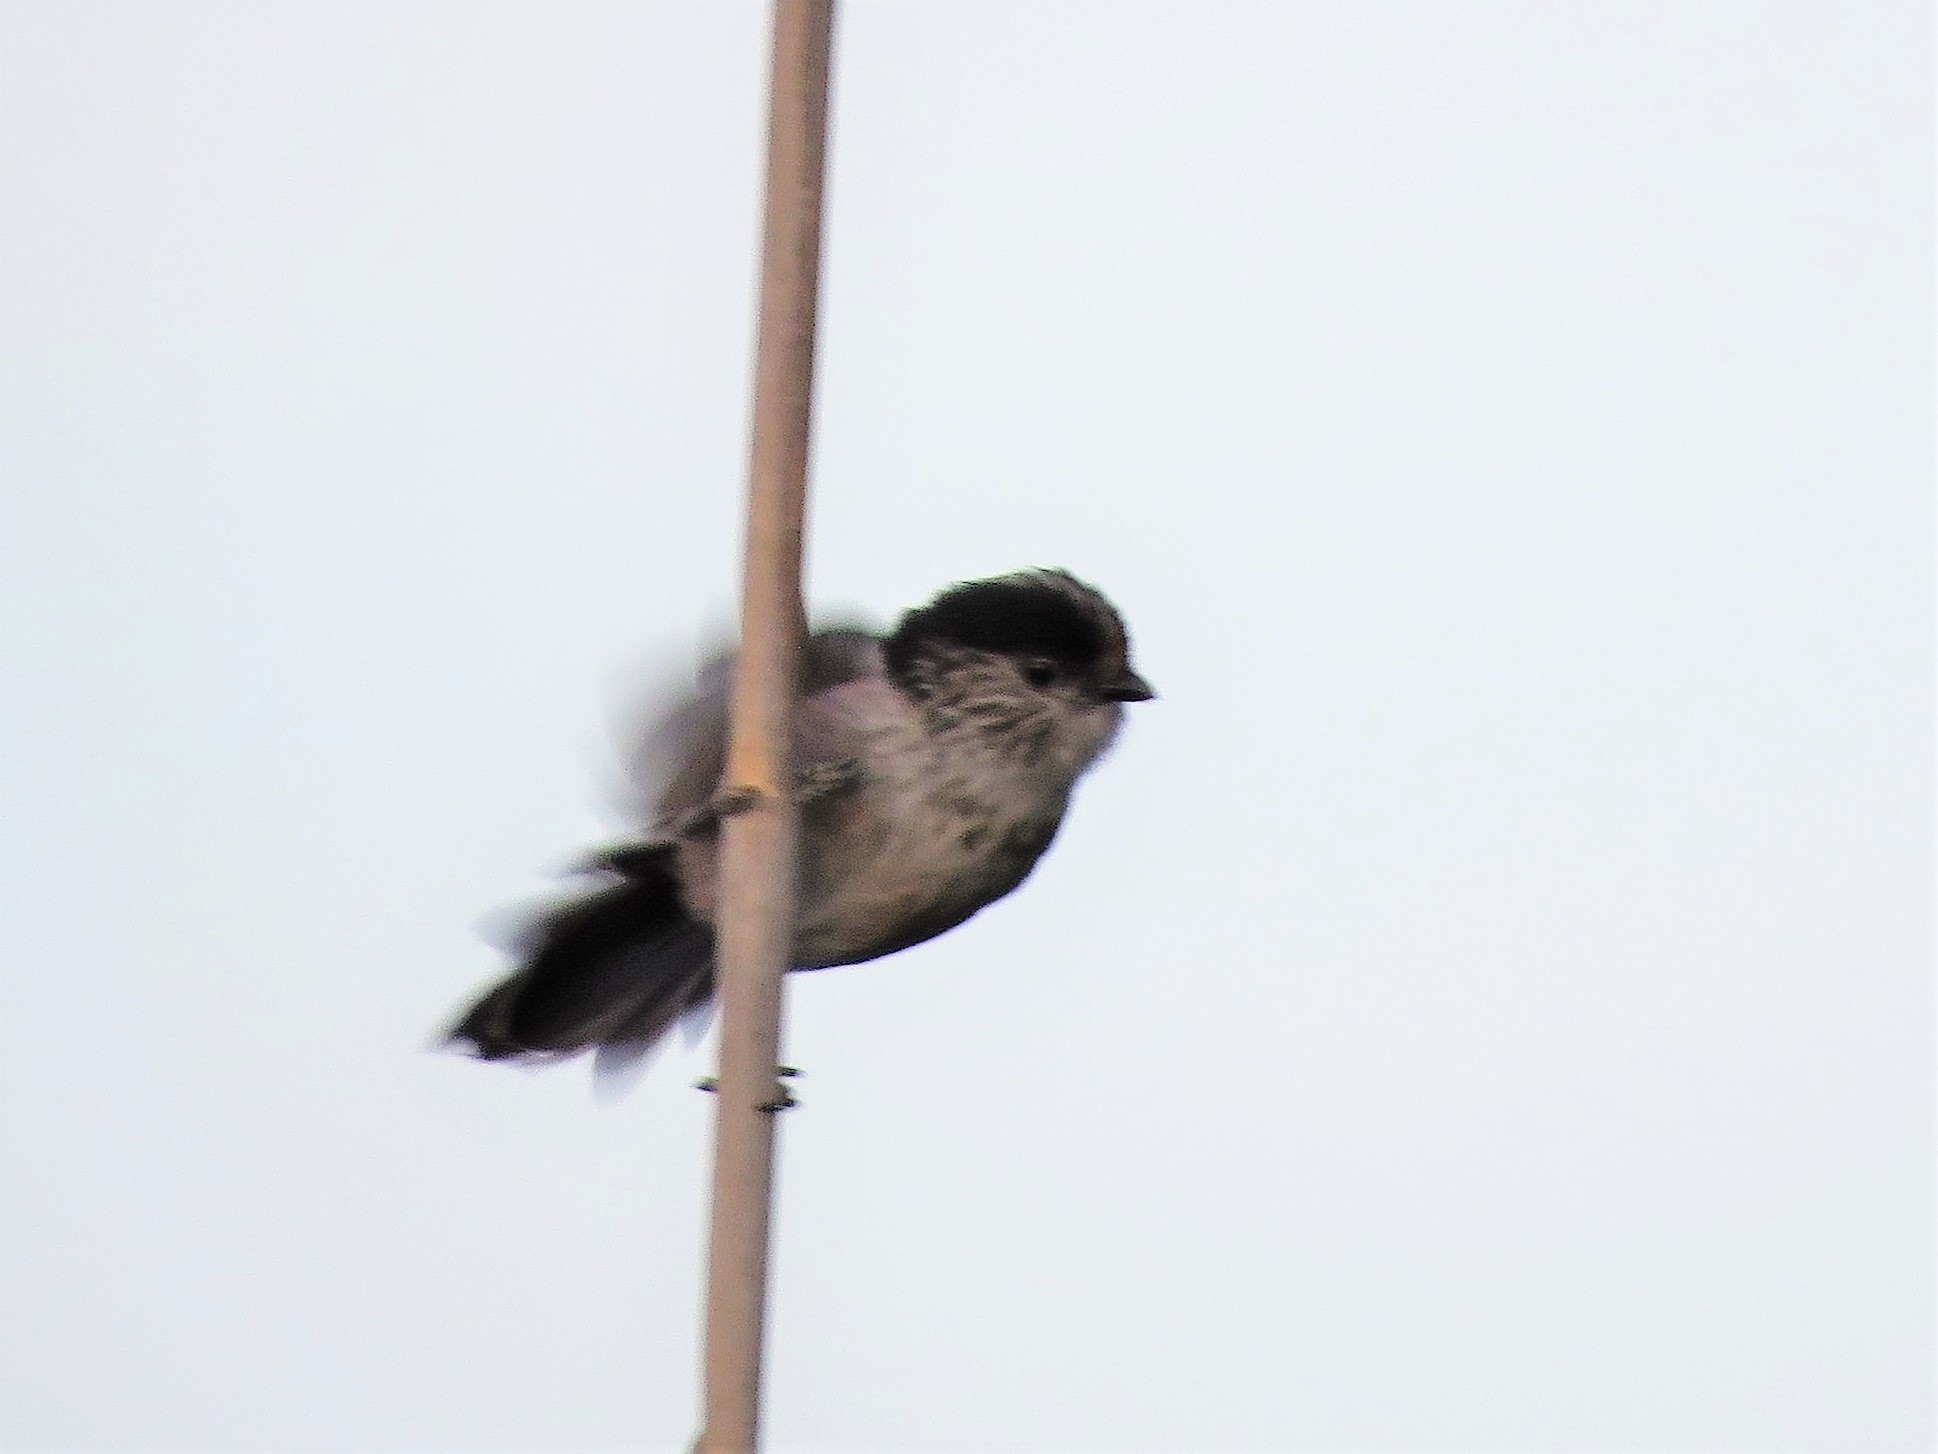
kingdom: Animalia
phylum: Chordata
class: Aves
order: Passeriformes
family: Aegithalidae
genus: Aegithalos
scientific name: Aegithalos caudatus
